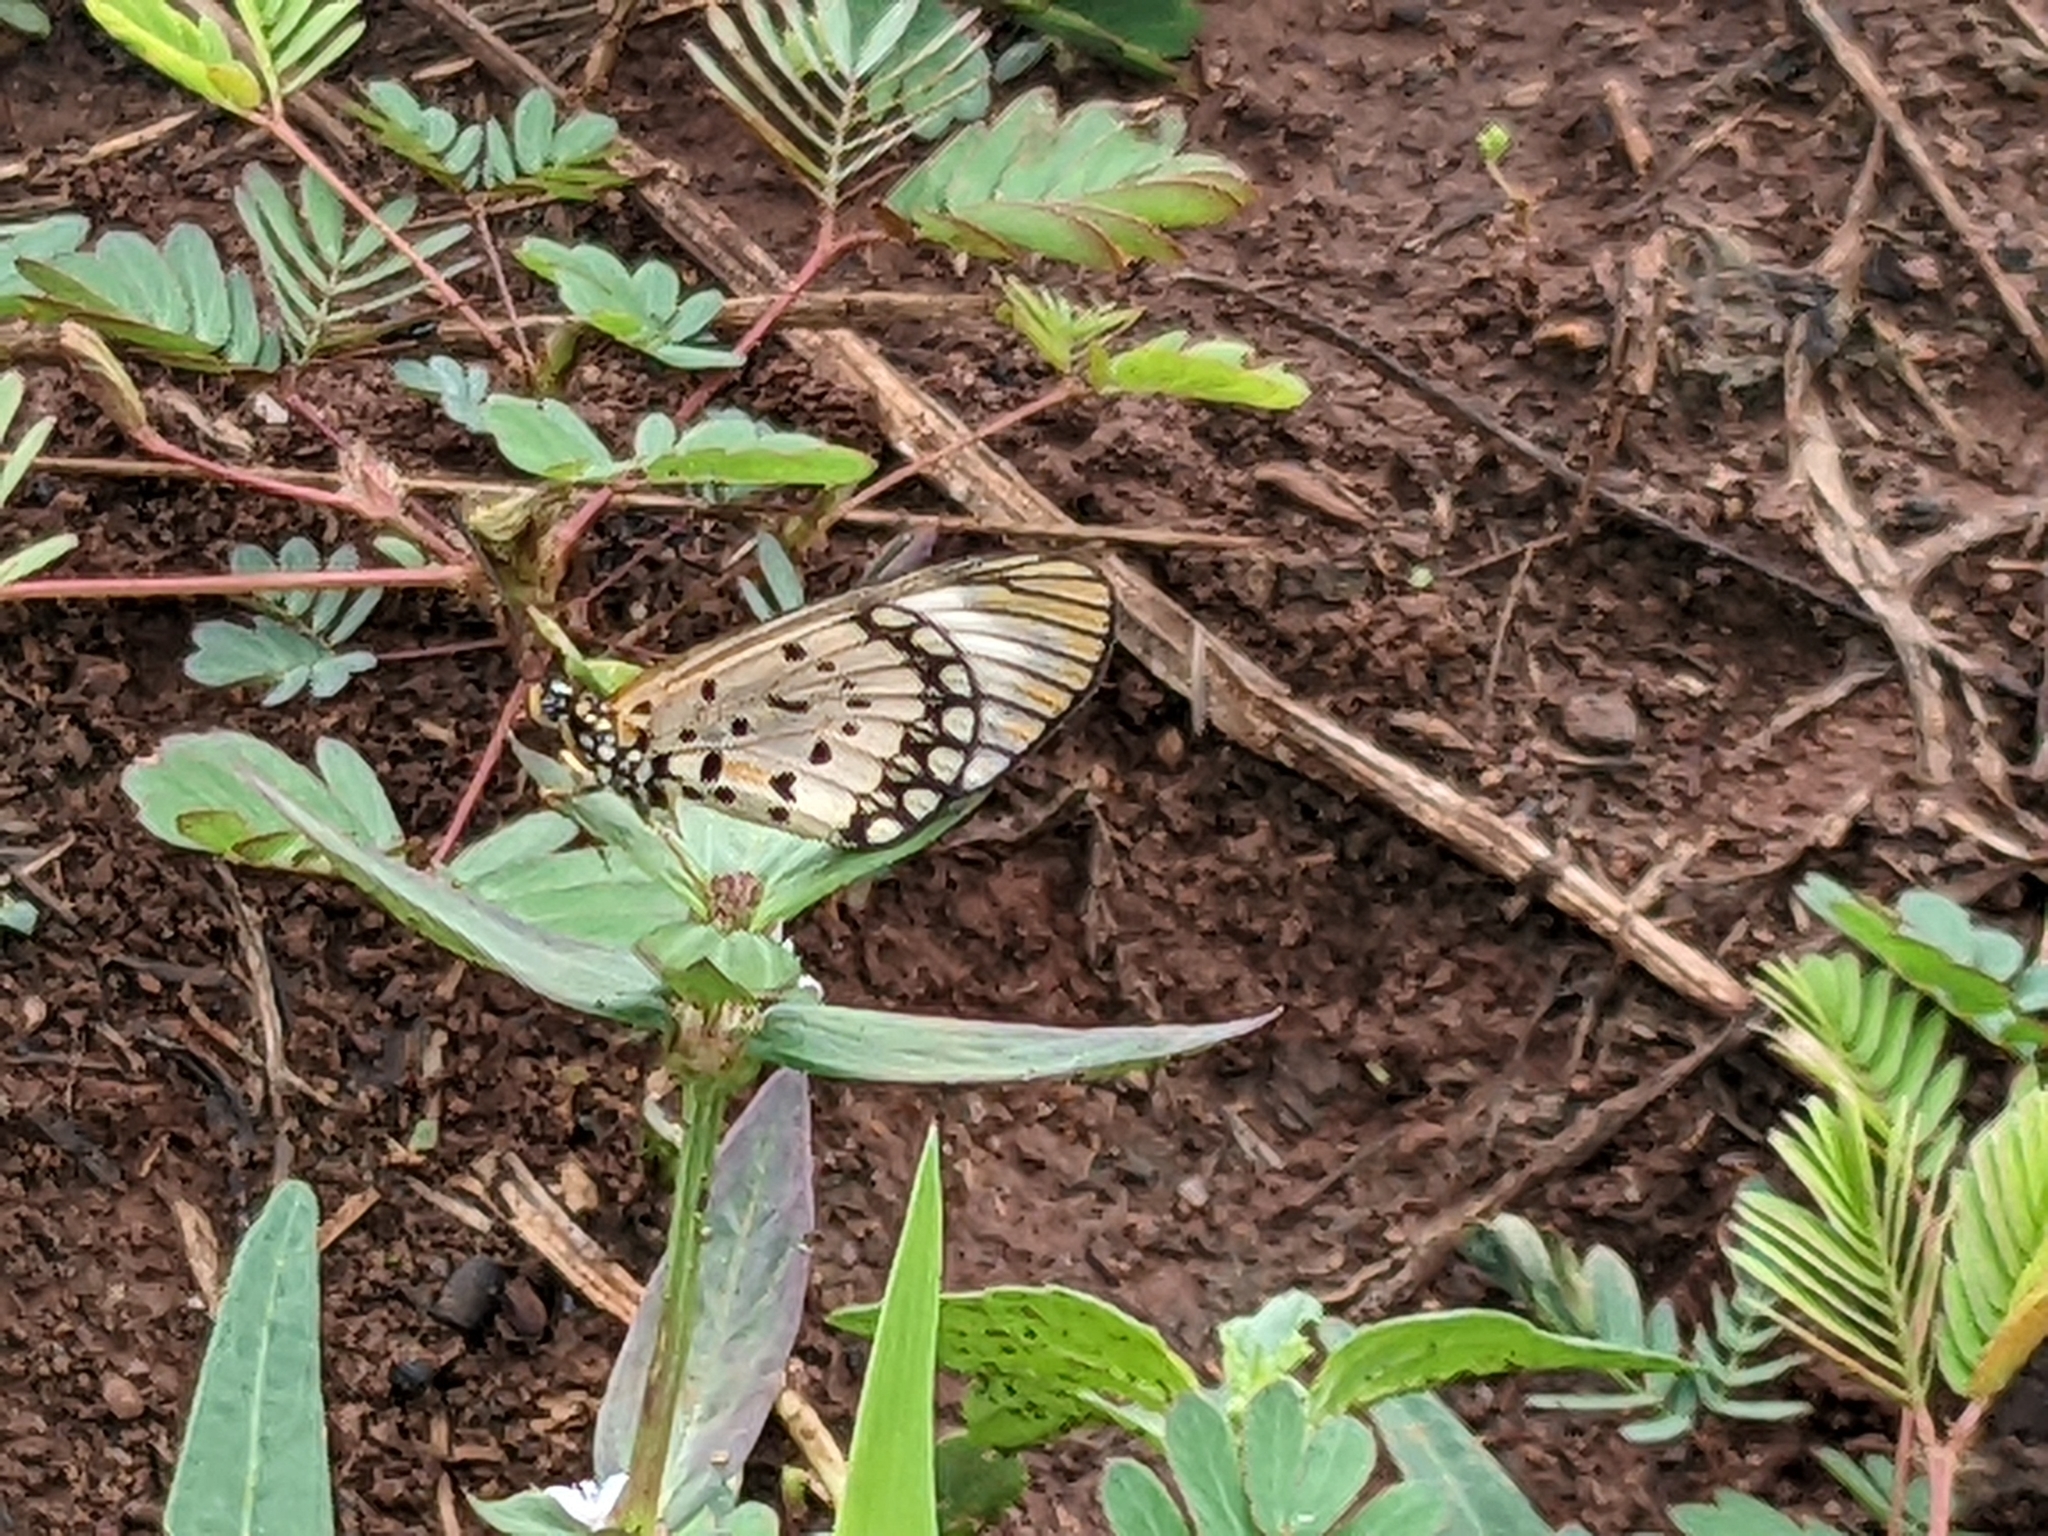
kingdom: Animalia
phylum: Arthropoda
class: Insecta
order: Lepidoptera
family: Nymphalidae
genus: Acraea
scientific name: Acraea Telchinia serena
